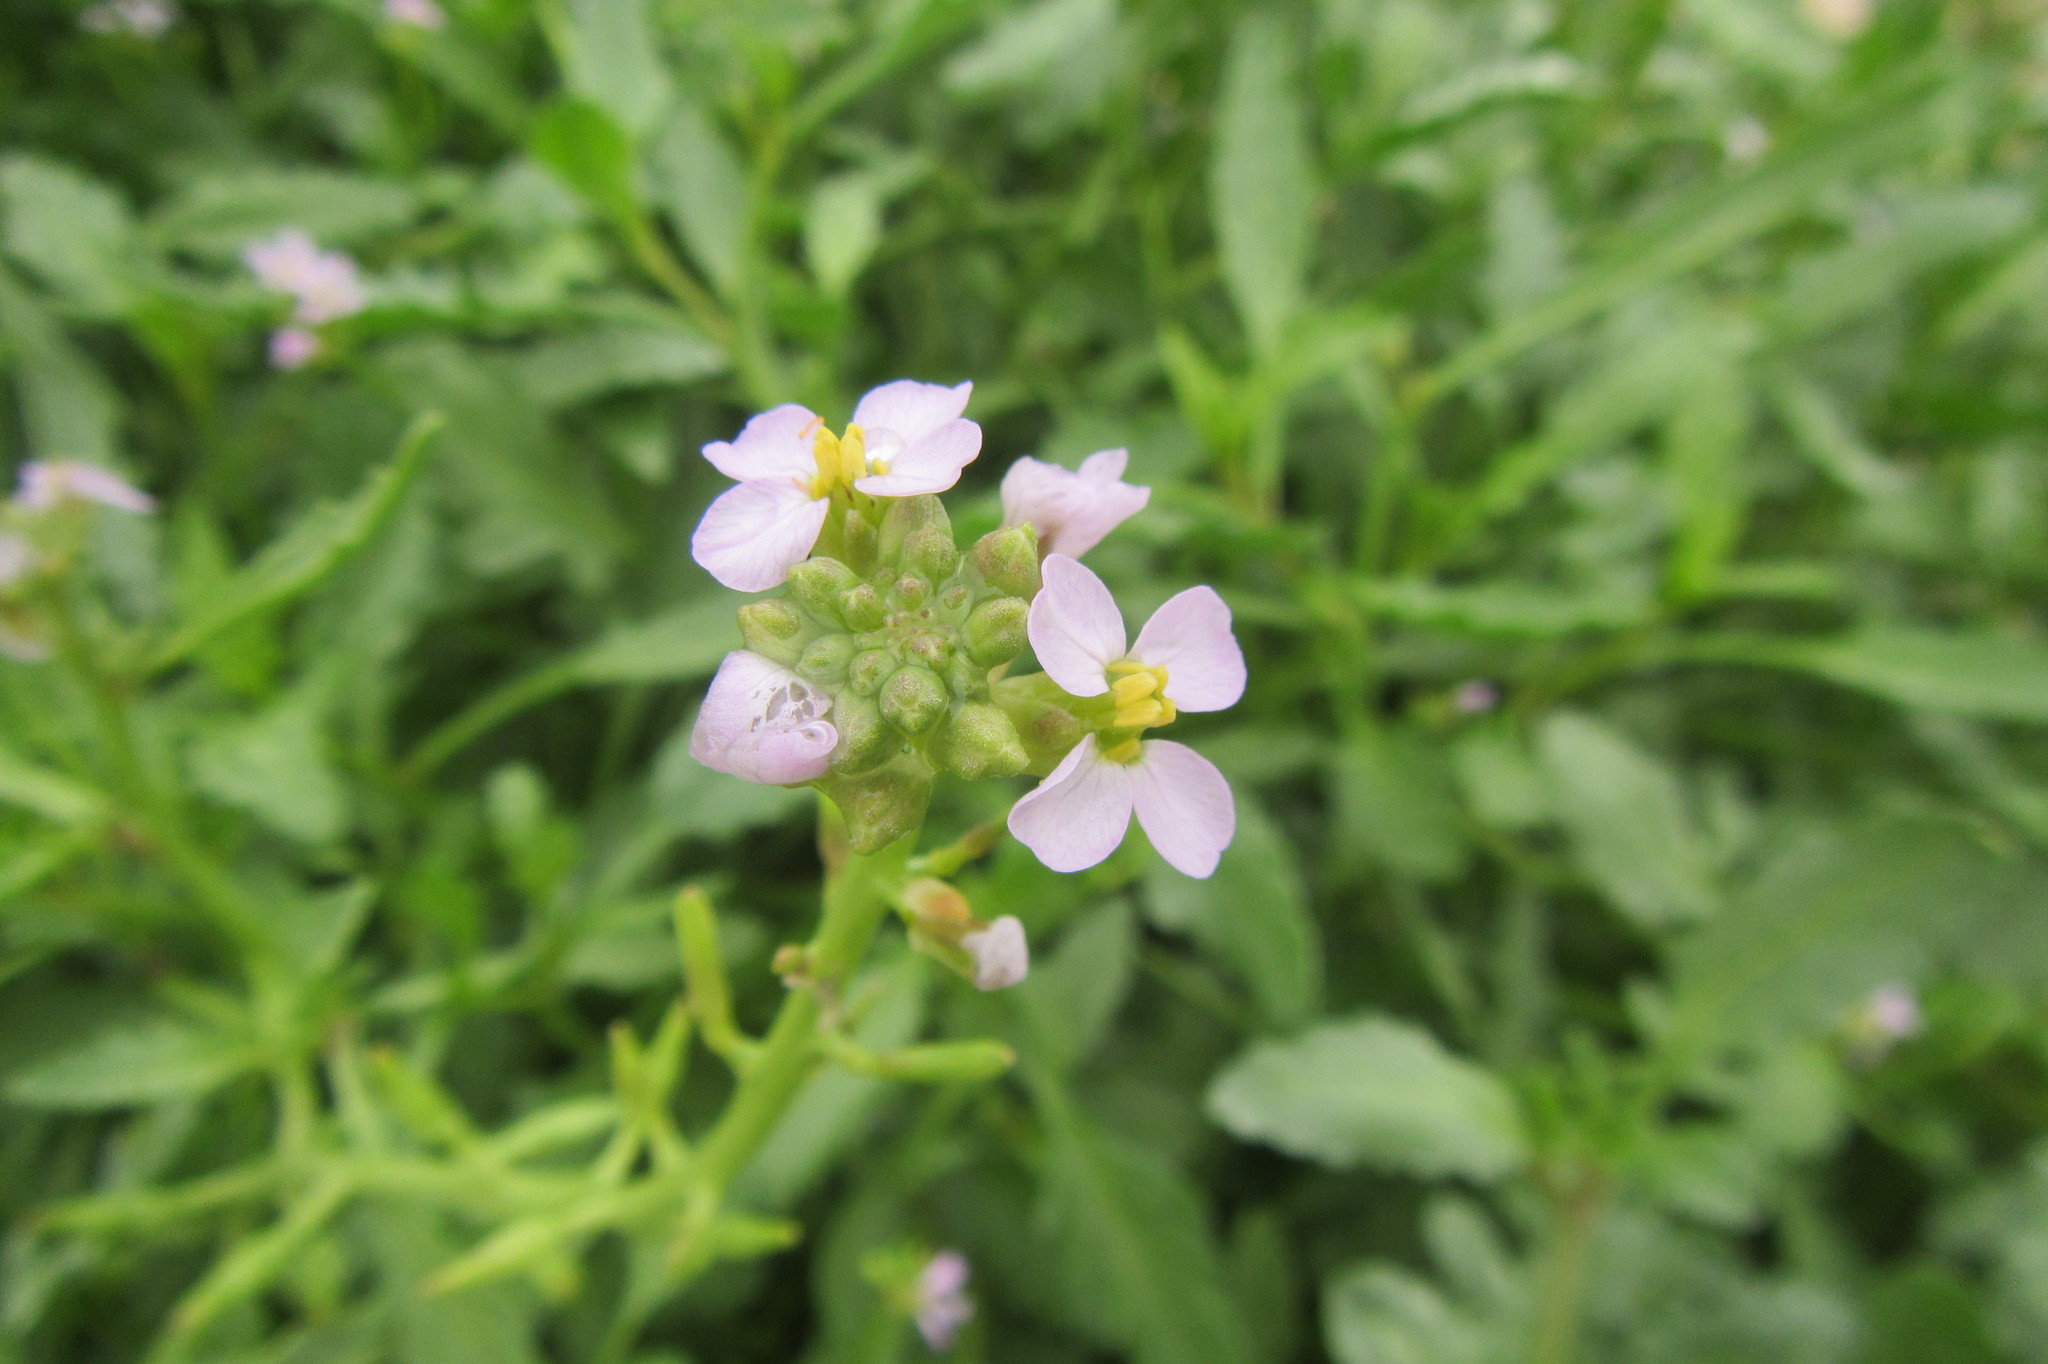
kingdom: Plantae
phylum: Tracheophyta
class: Magnoliopsida
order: Brassicales
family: Brassicaceae
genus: Cakile
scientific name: Cakile edentula
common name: American sea rocket
